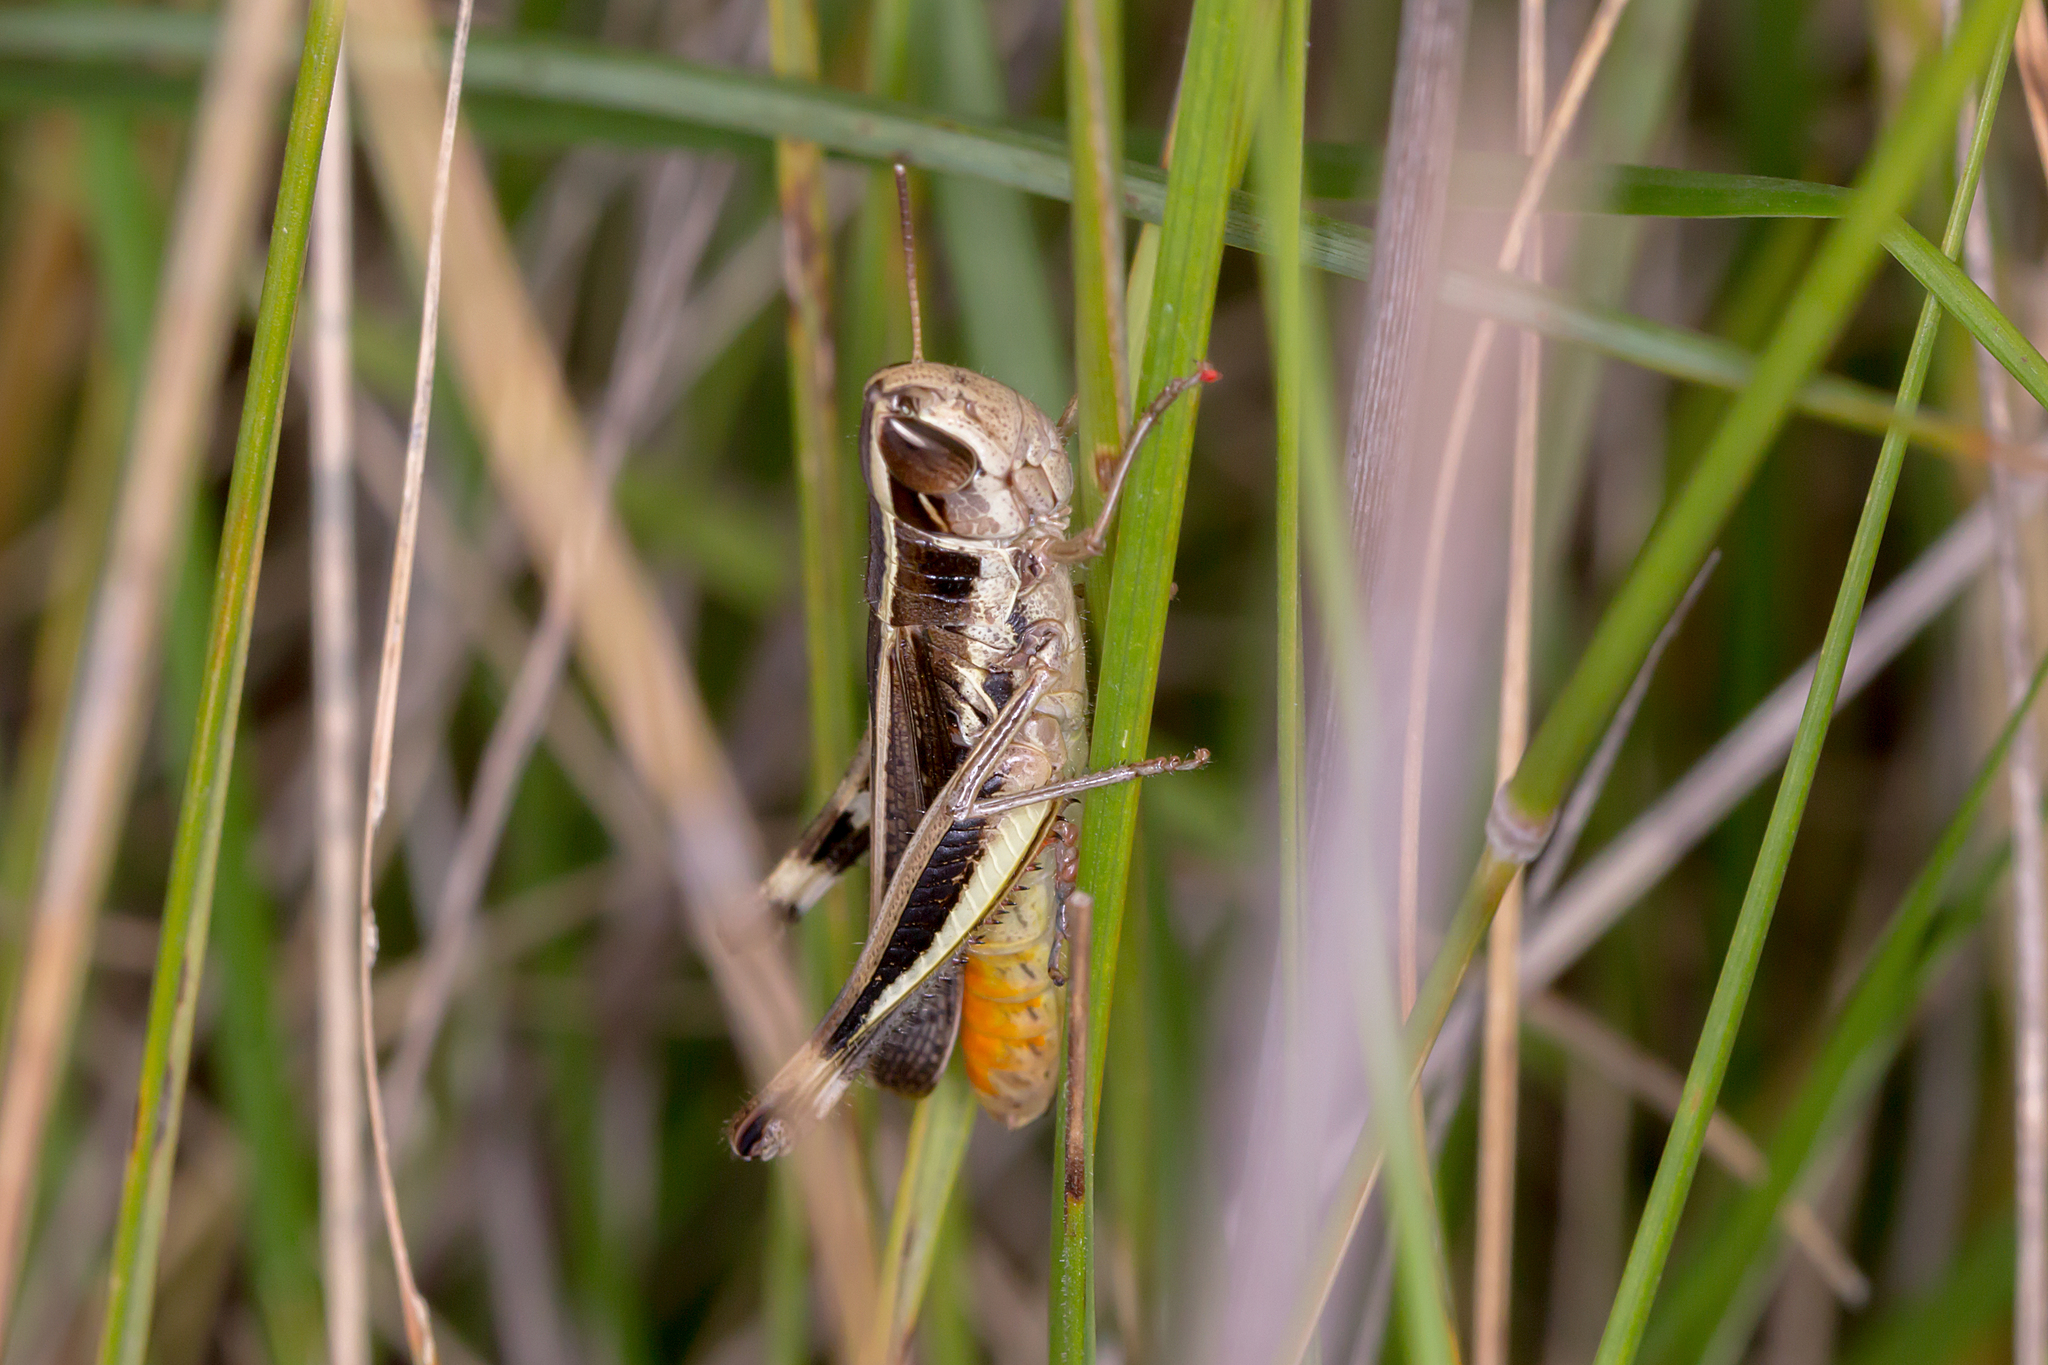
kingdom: Animalia
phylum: Arthropoda
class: Insecta
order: Orthoptera
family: Acrididae
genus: Macrotona
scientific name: Macrotona securiformis
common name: Inland macrotona
